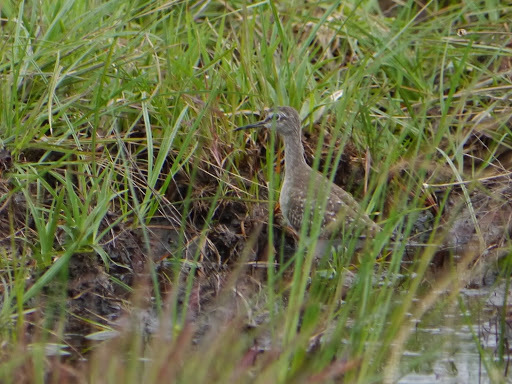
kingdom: Animalia
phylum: Chordata
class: Aves
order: Charadriiformes
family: Scolopacidae
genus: Tringa
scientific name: Tringa glareola
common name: Wood sandpiper
